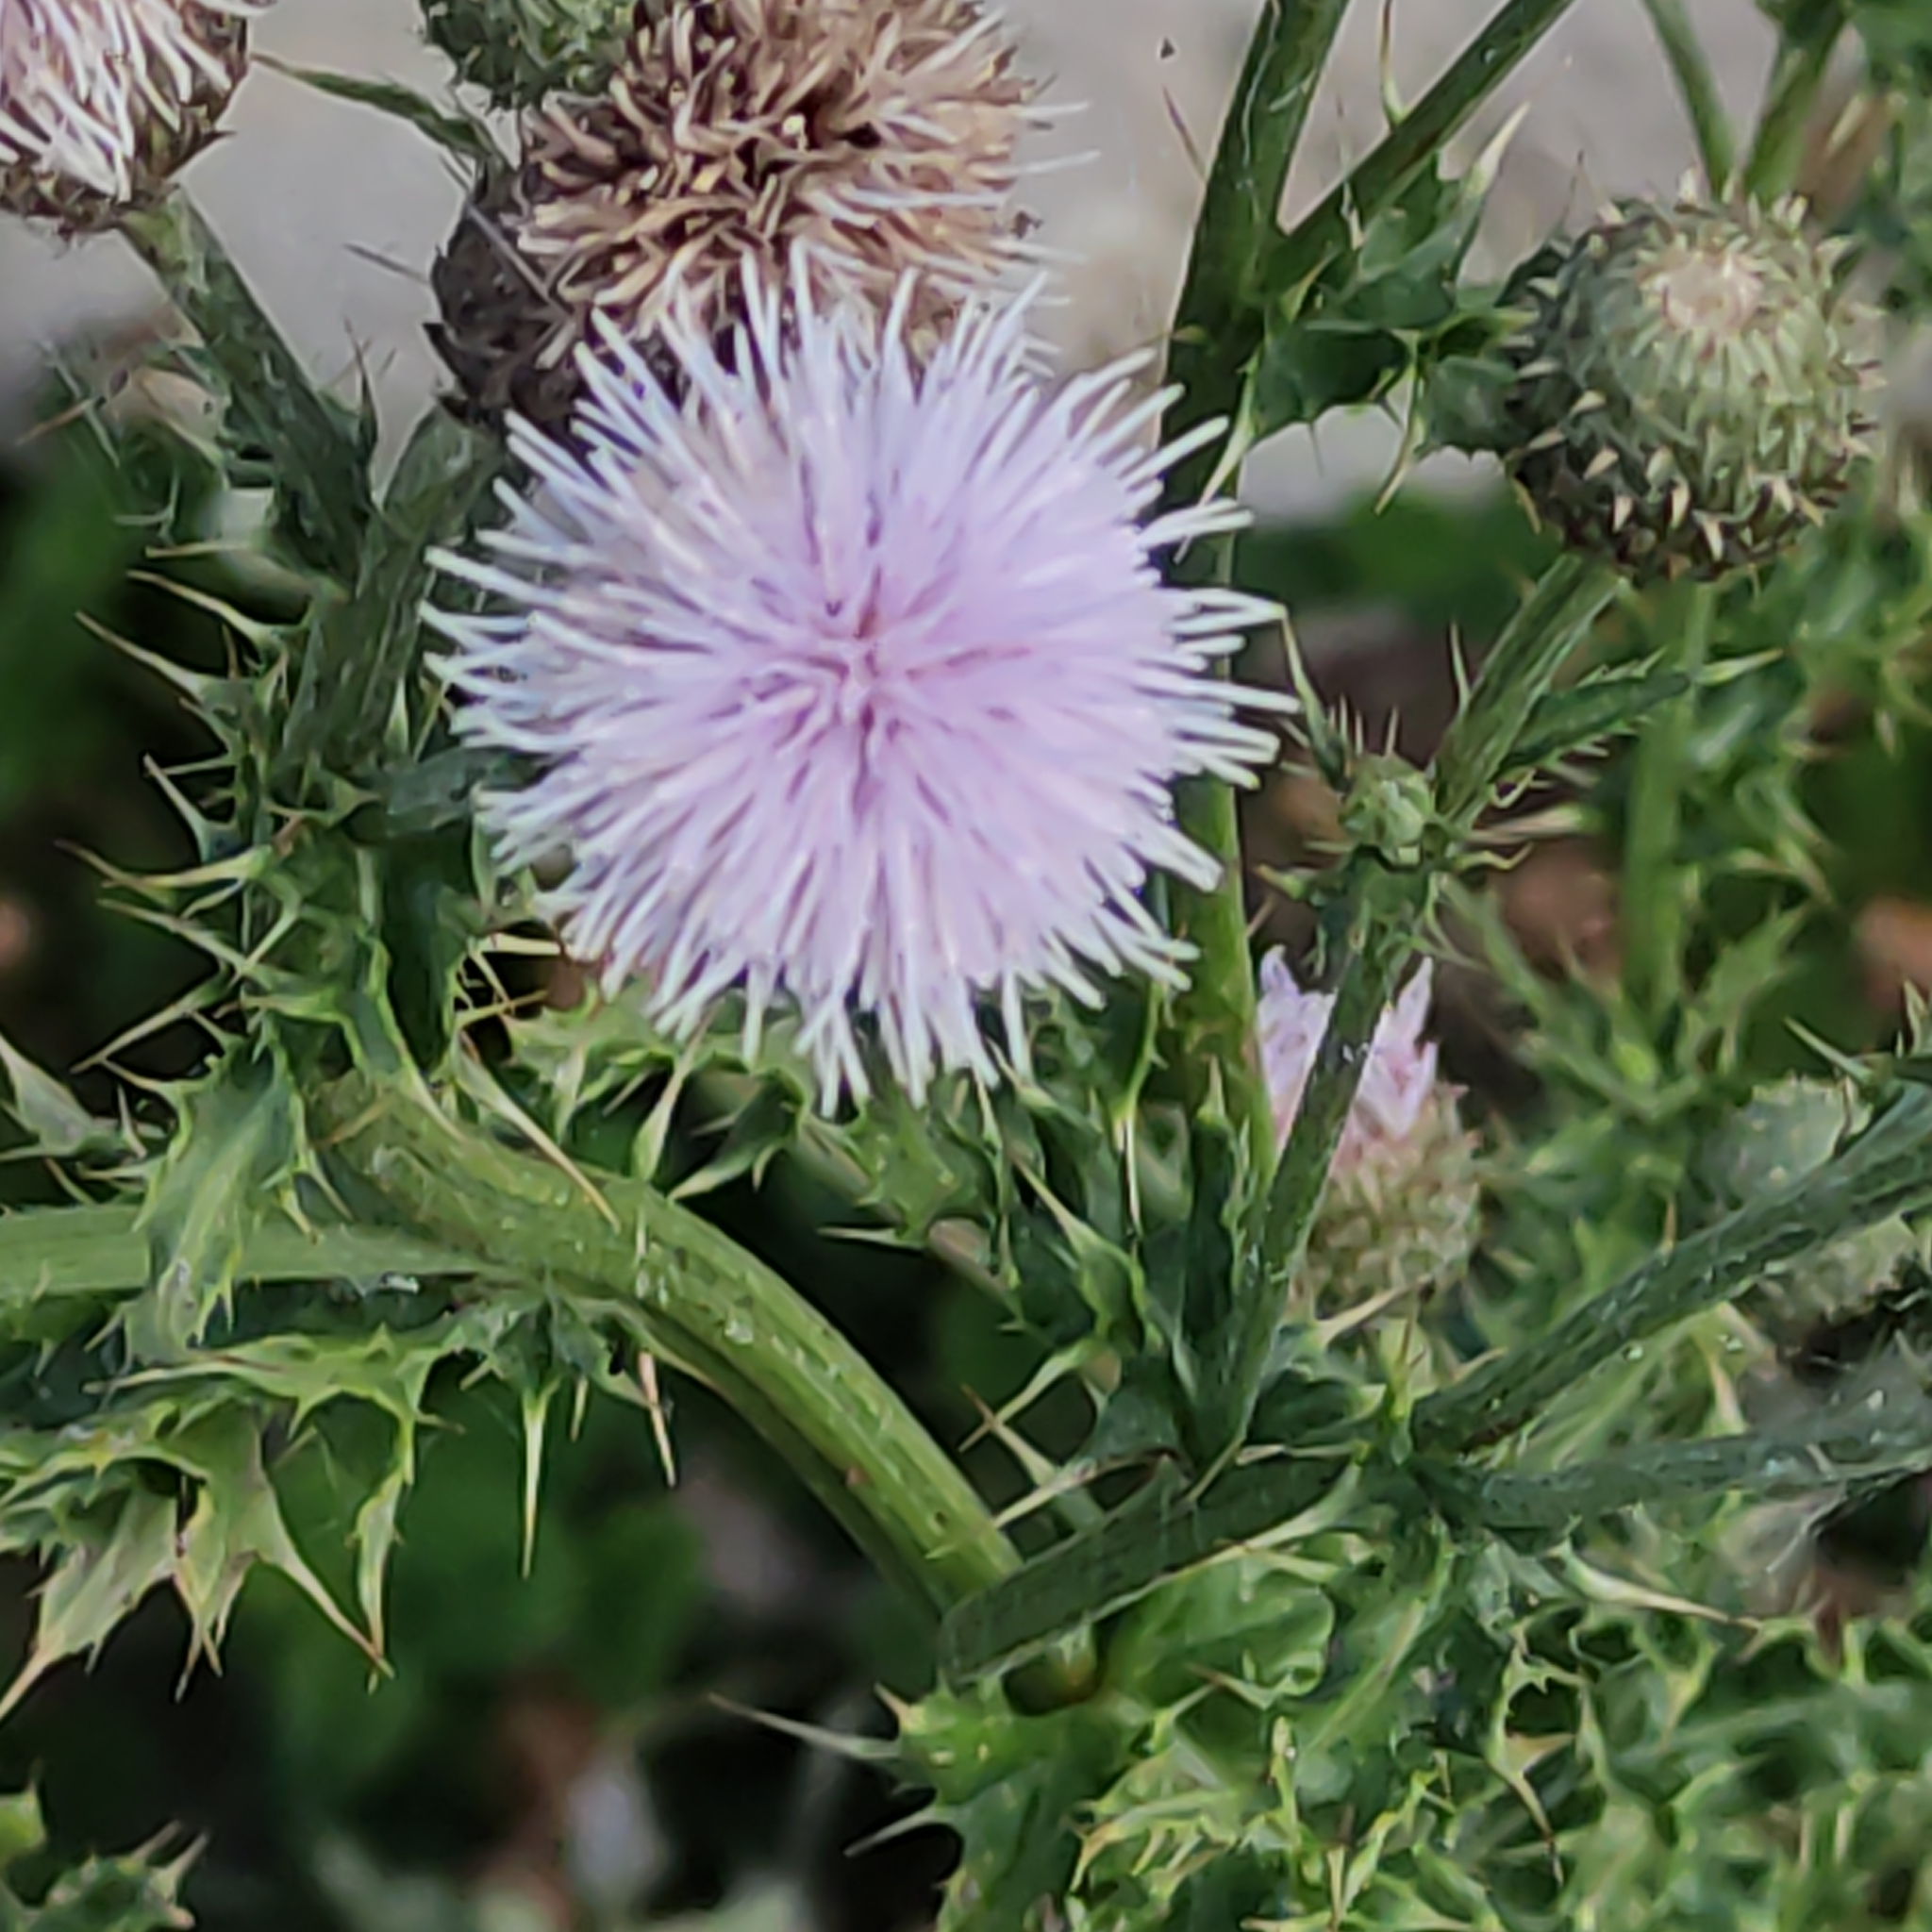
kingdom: Plantae
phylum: Tracheophyta
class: Magnoliopsida
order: Asterales
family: Asteraceae
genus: Cirsium
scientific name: Cirsium arvense
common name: Creeping thistle
